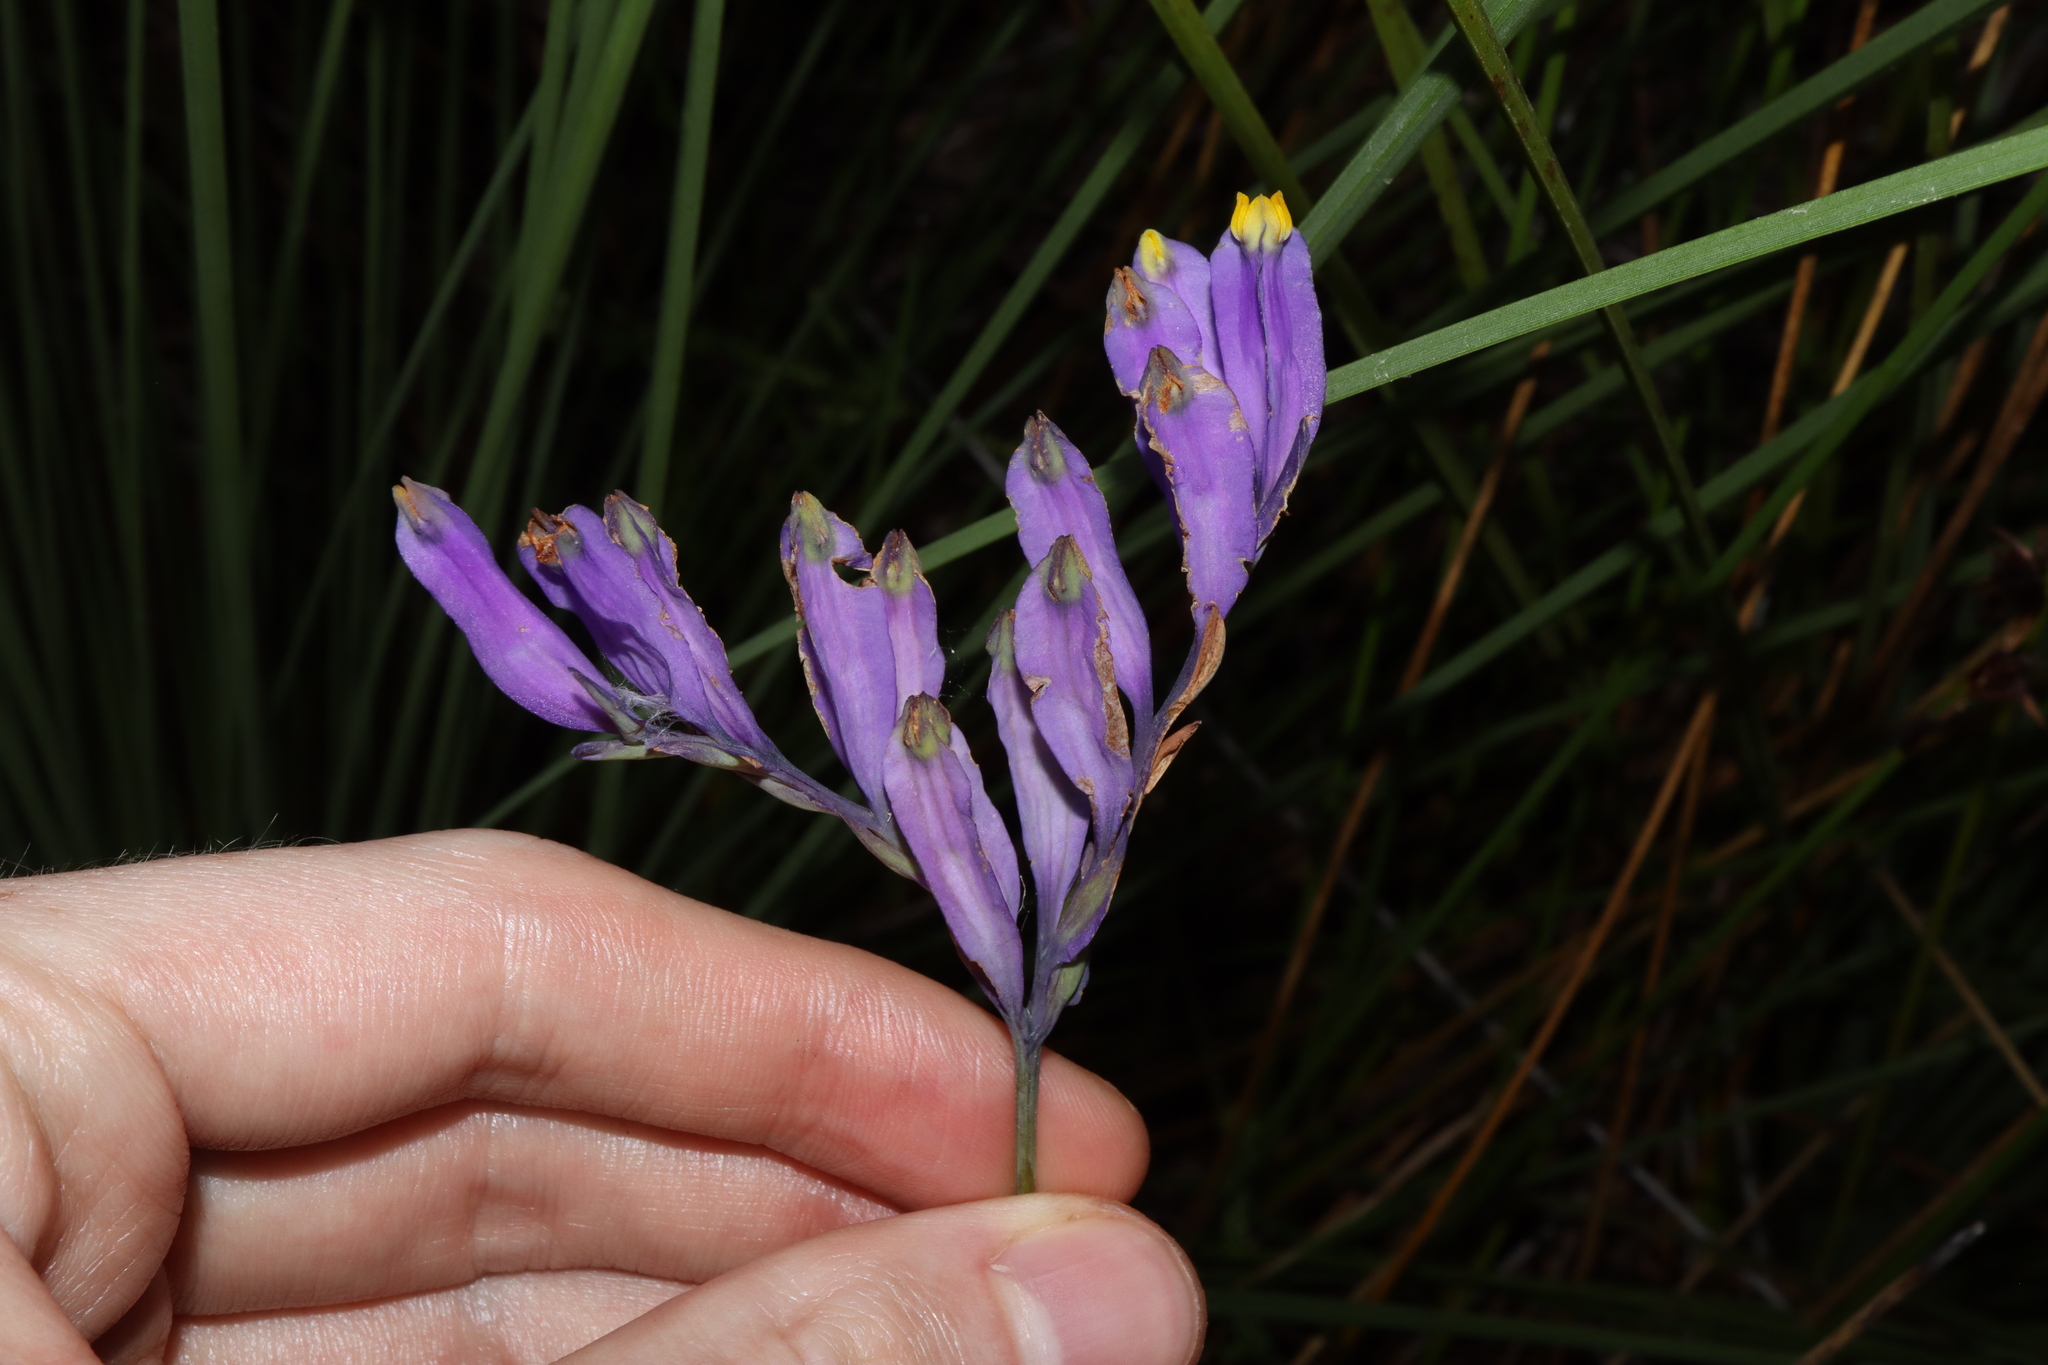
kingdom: Plantae
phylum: Tracheophyta
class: Liliopsida
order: Dioscoreales
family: Burmanniaceae
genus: Burmannia
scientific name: Burmannia disticha
